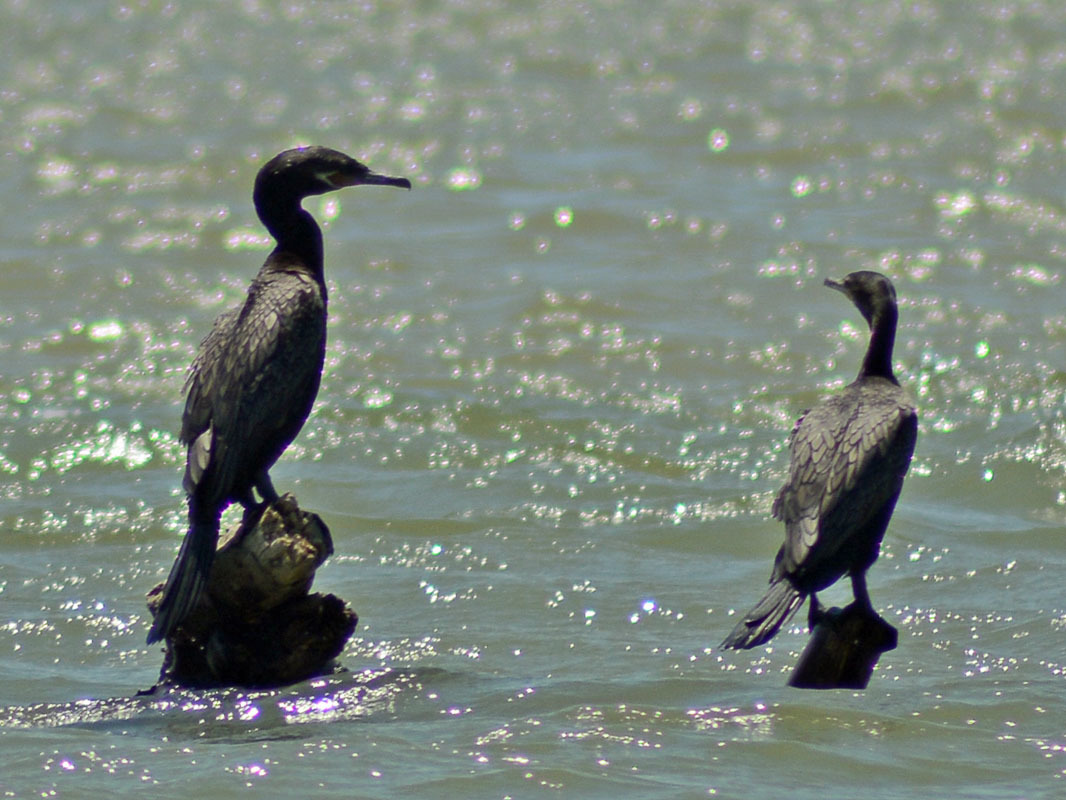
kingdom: Animalia
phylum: Chordata
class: Aves
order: Suliformes
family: Phalacrocoracidae
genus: Phalacrocorax
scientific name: Phalacrocorax brasilianus
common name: Neotropic cormorant
